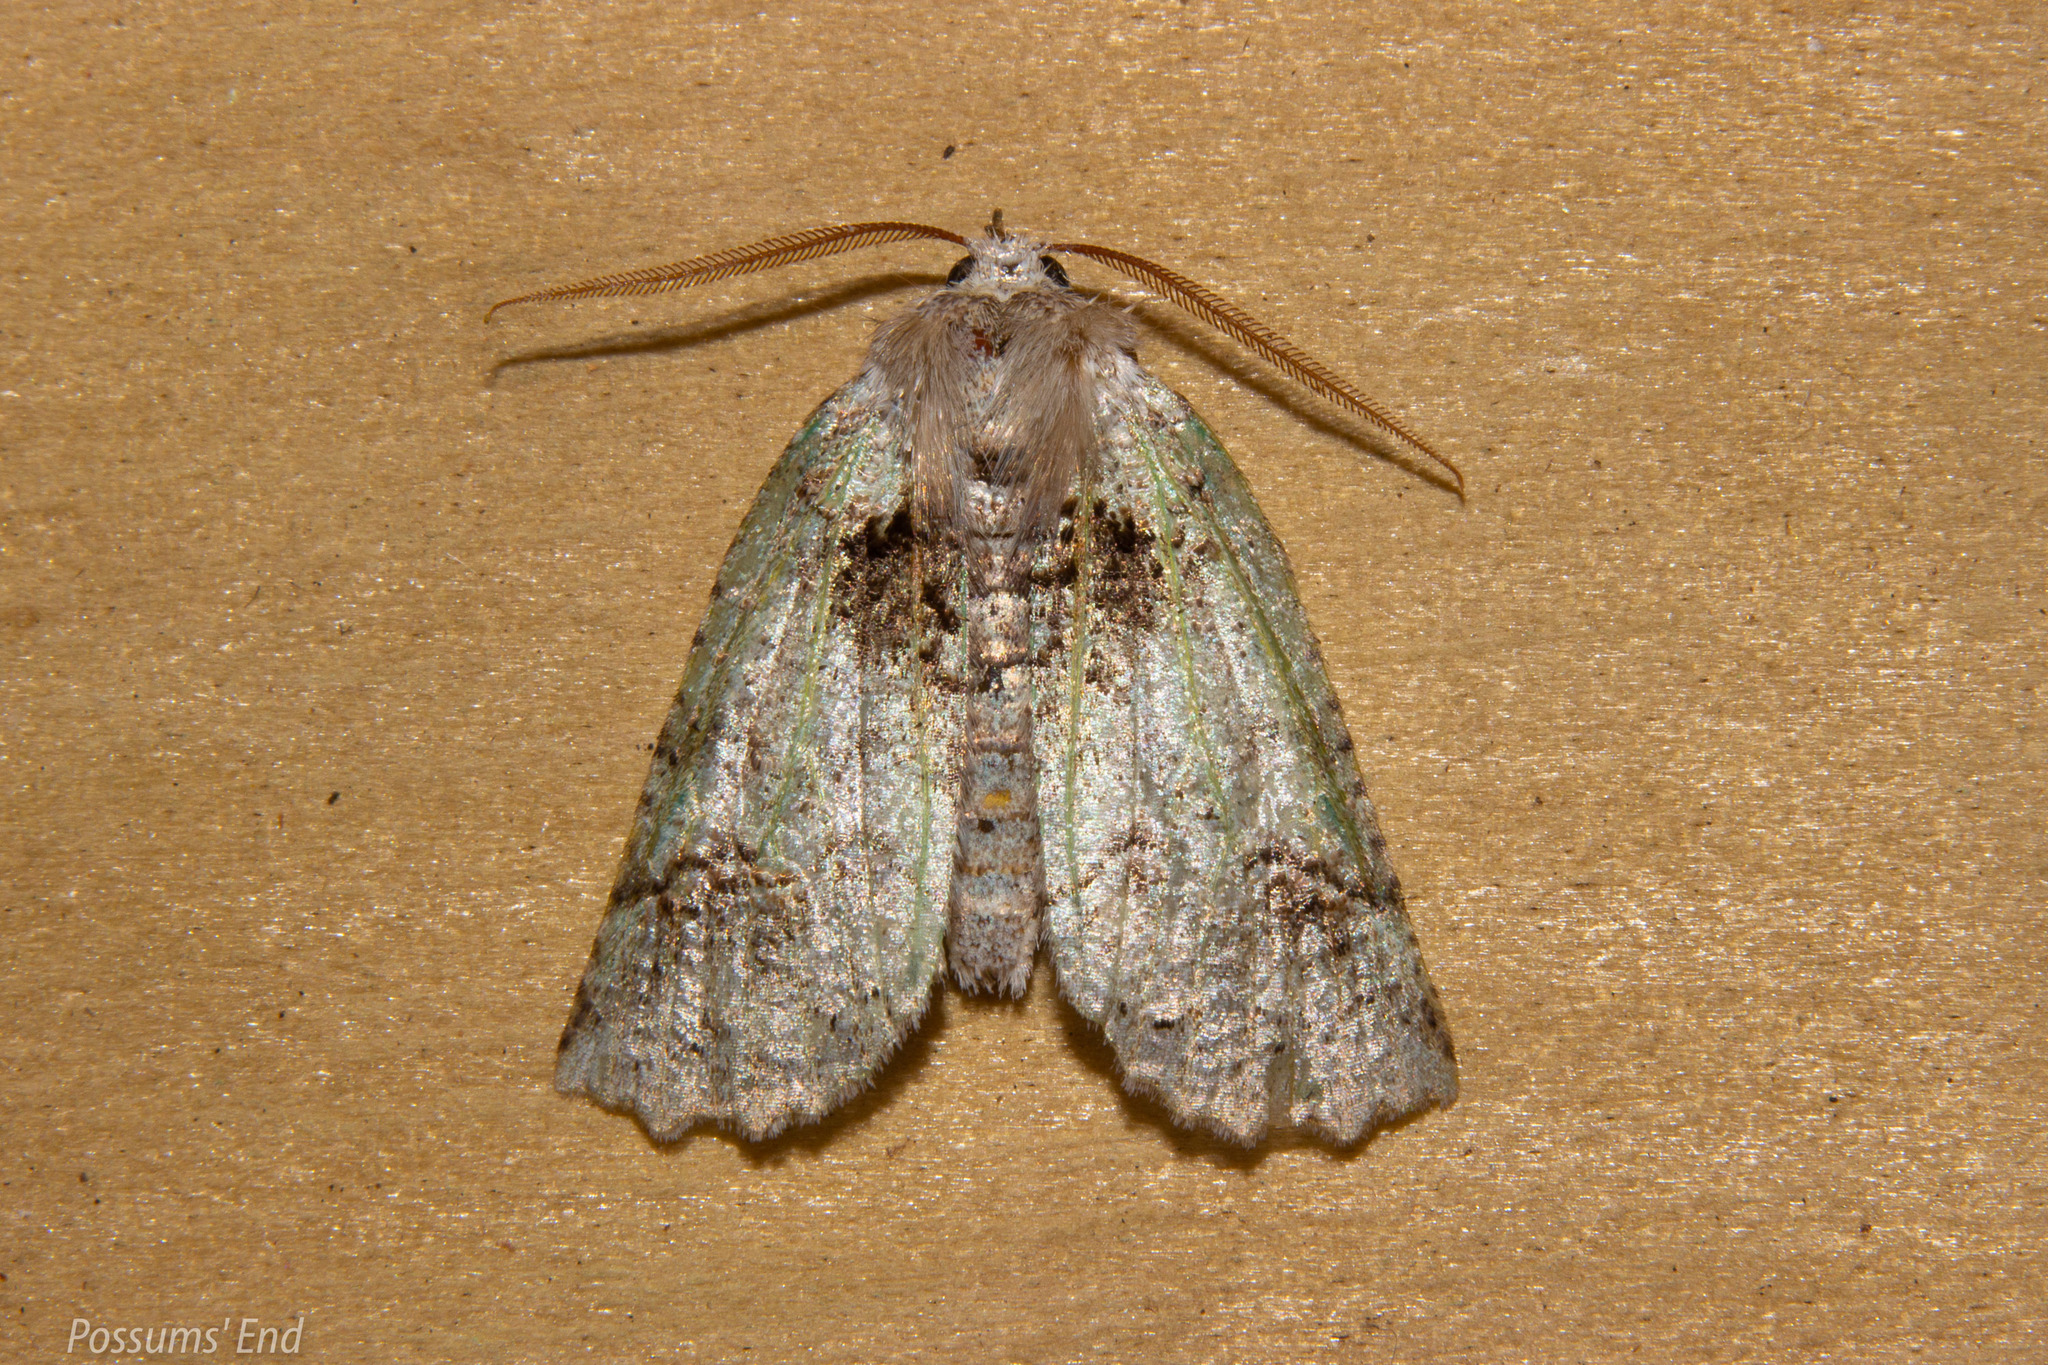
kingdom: Animalia
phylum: Arthropoda
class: Insecta
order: Lepidoptera
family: Geometridae
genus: Declana
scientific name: Declana floccosa
